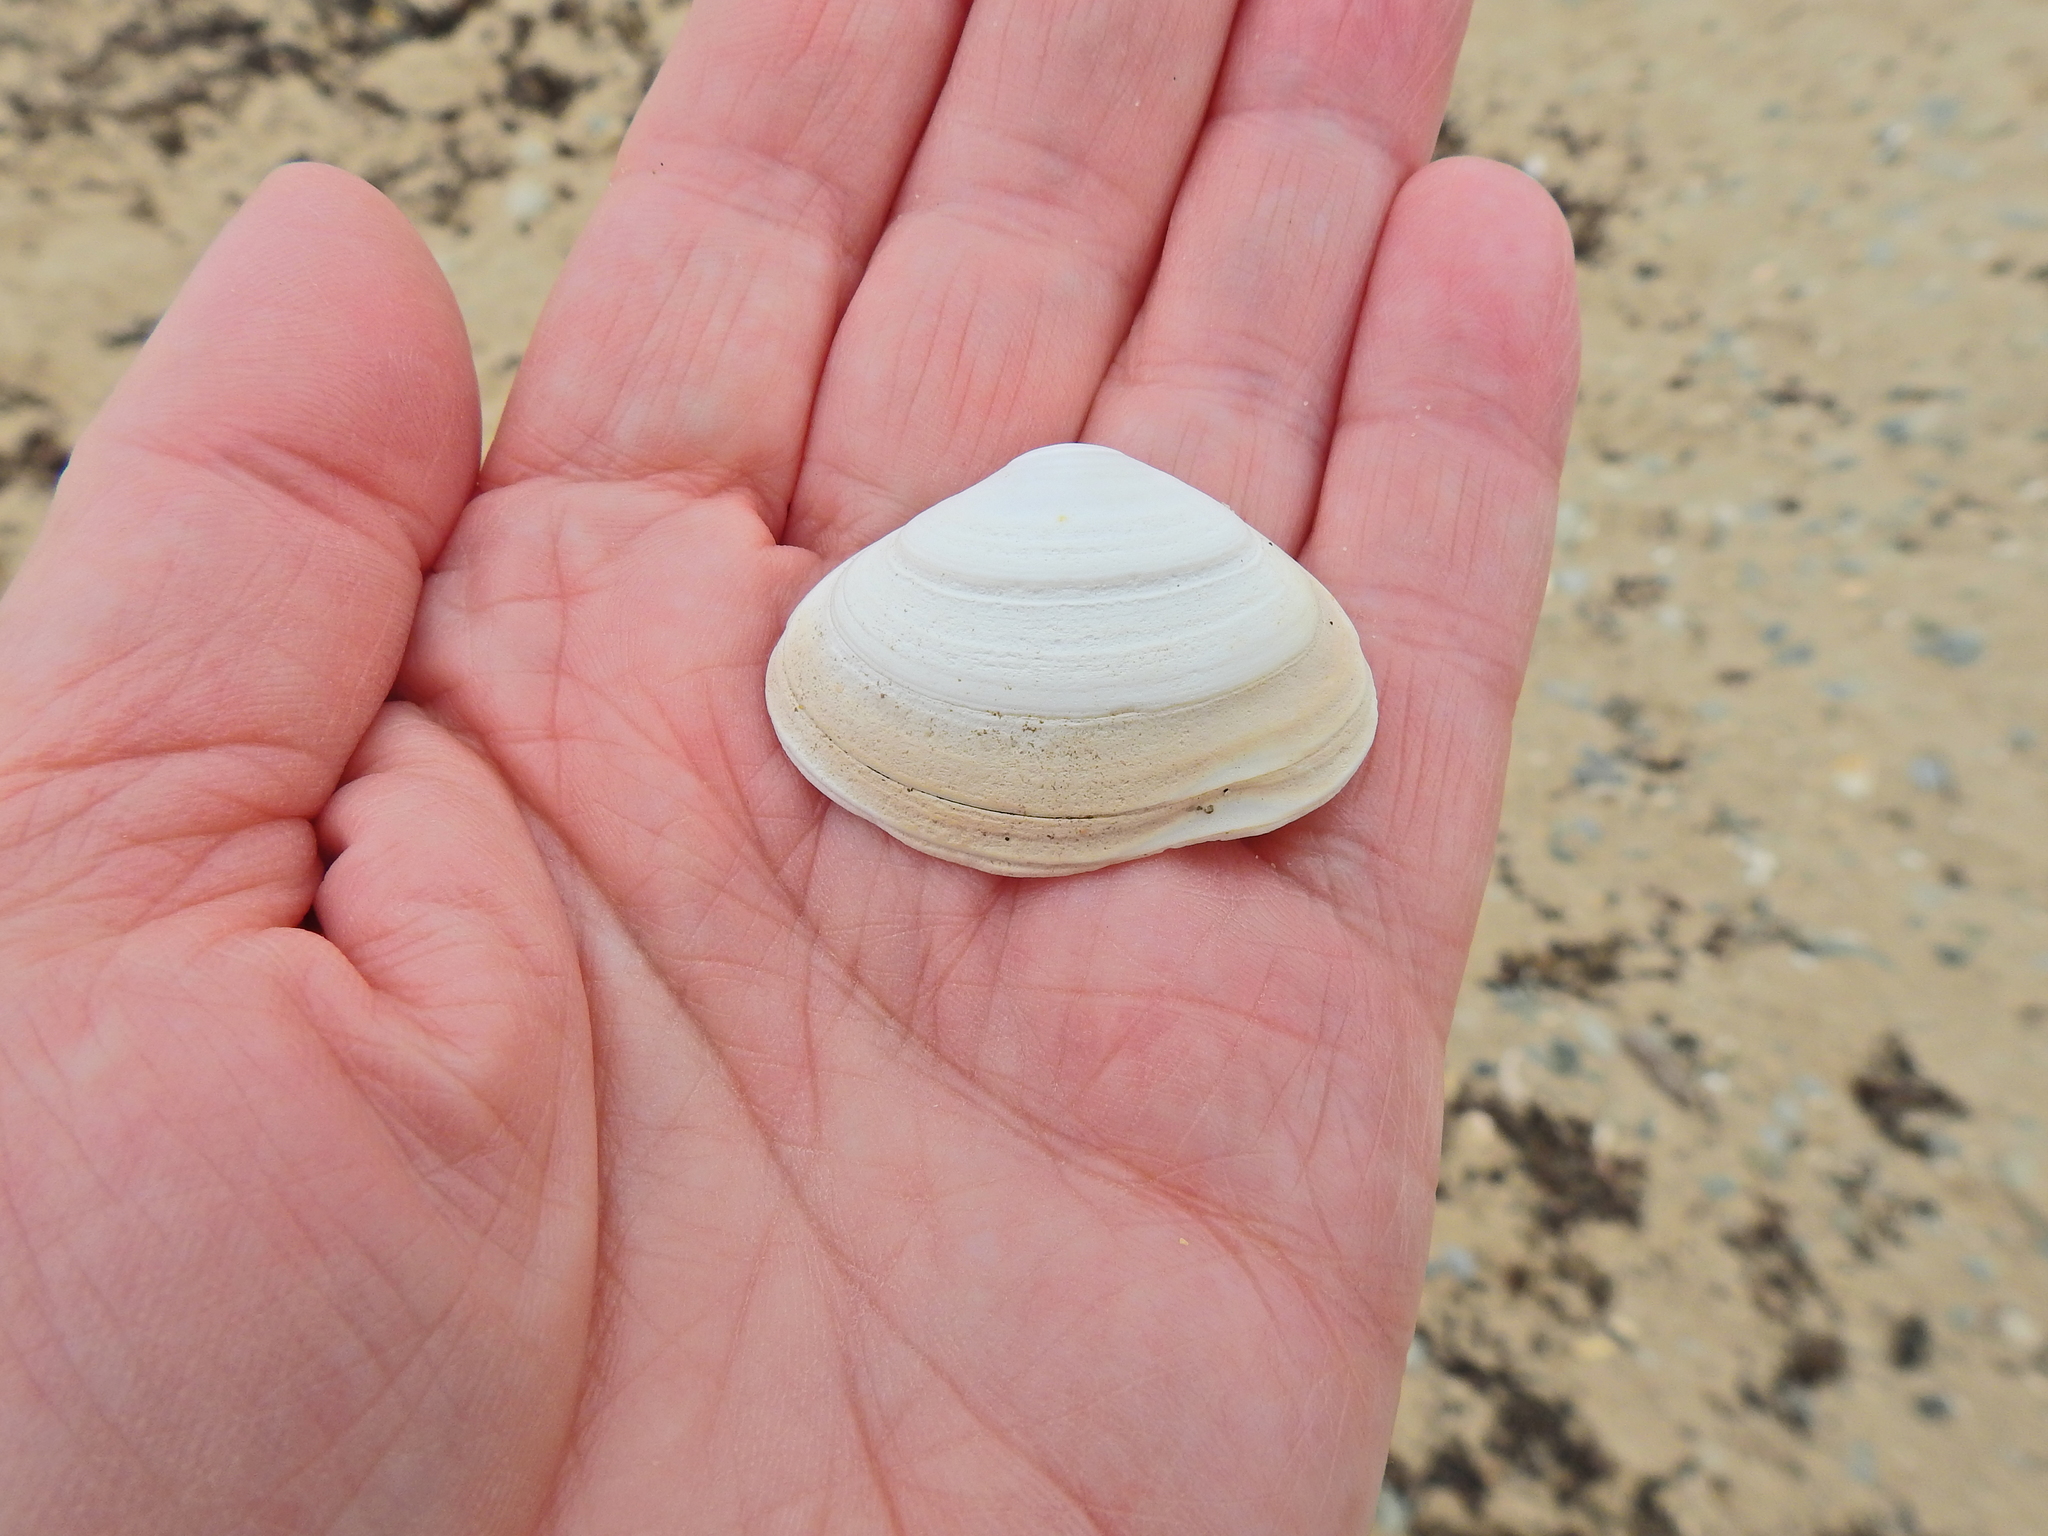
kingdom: Animalia
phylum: Mollusca
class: Bivalvia
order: Venerida
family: Mactridae
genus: Spisula
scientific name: Spisula solida
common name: Thick trough shell
